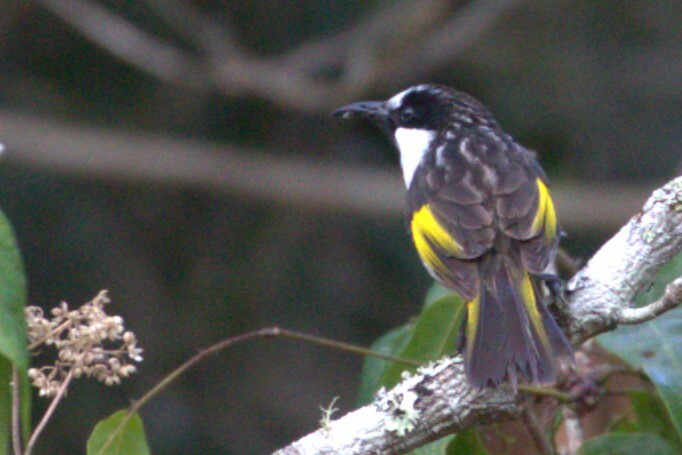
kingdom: Animalia
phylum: Chordata
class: Aves
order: Passeriformes
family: Meliphagidae
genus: Phylidonyris
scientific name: Phylidonyris niger
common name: White-cheeked honeyeater
